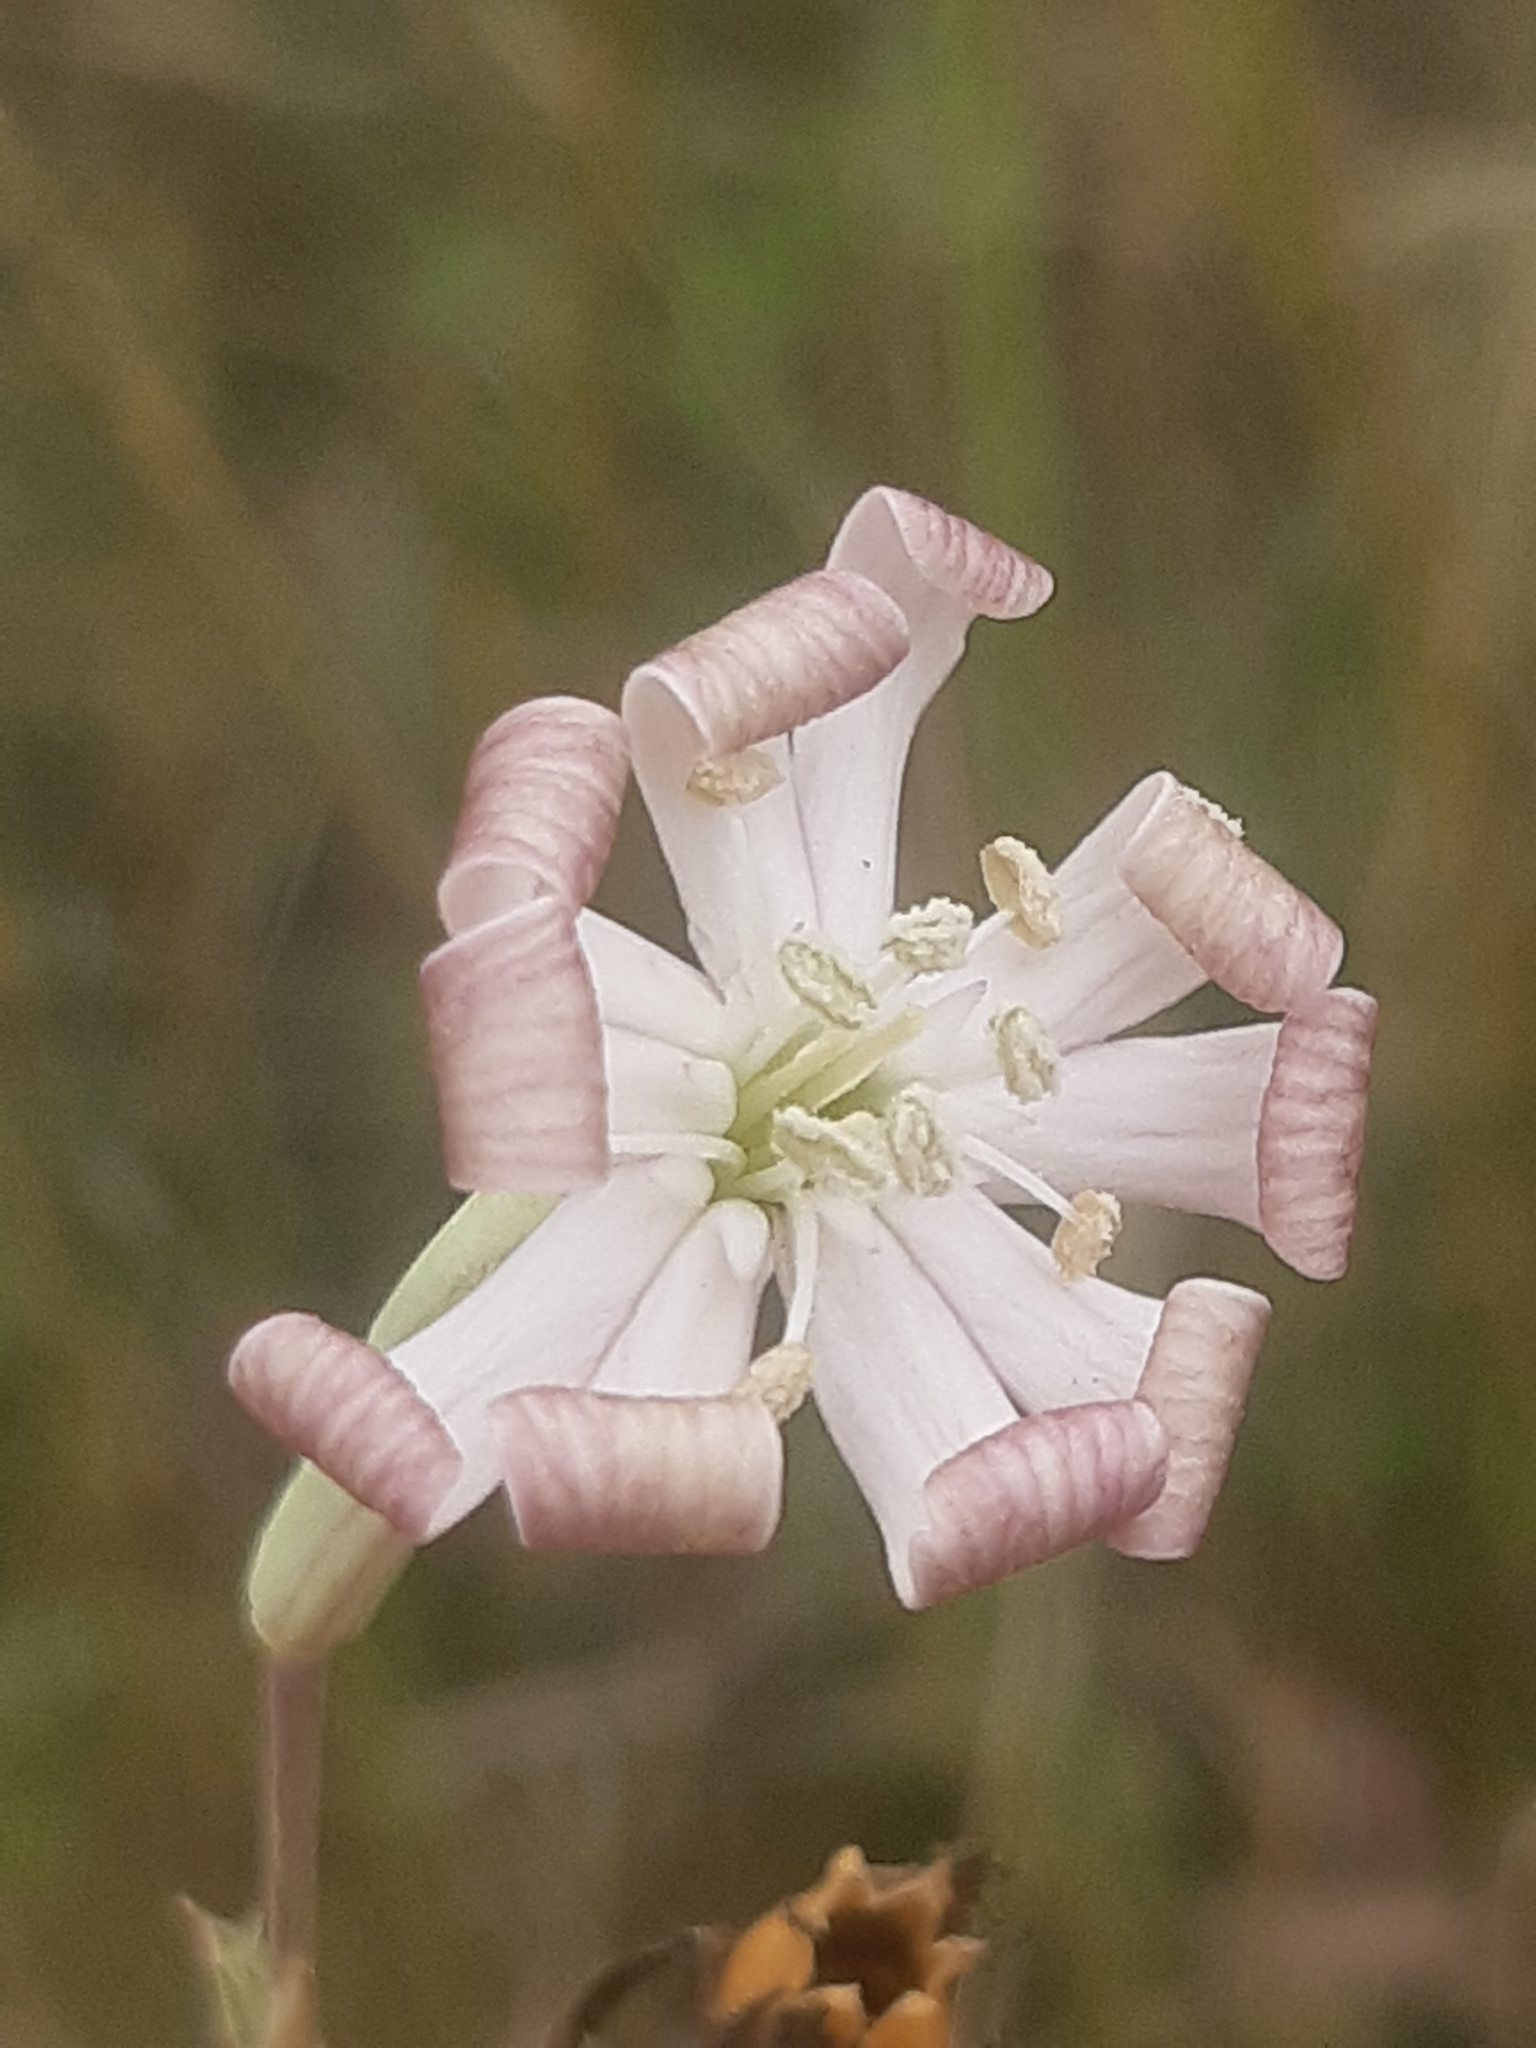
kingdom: Plantae
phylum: Tracheophyta
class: Magnoliopsida
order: Caryophyllales
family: Caryophyllaceae
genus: Silene
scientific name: Silene bupleuroides
